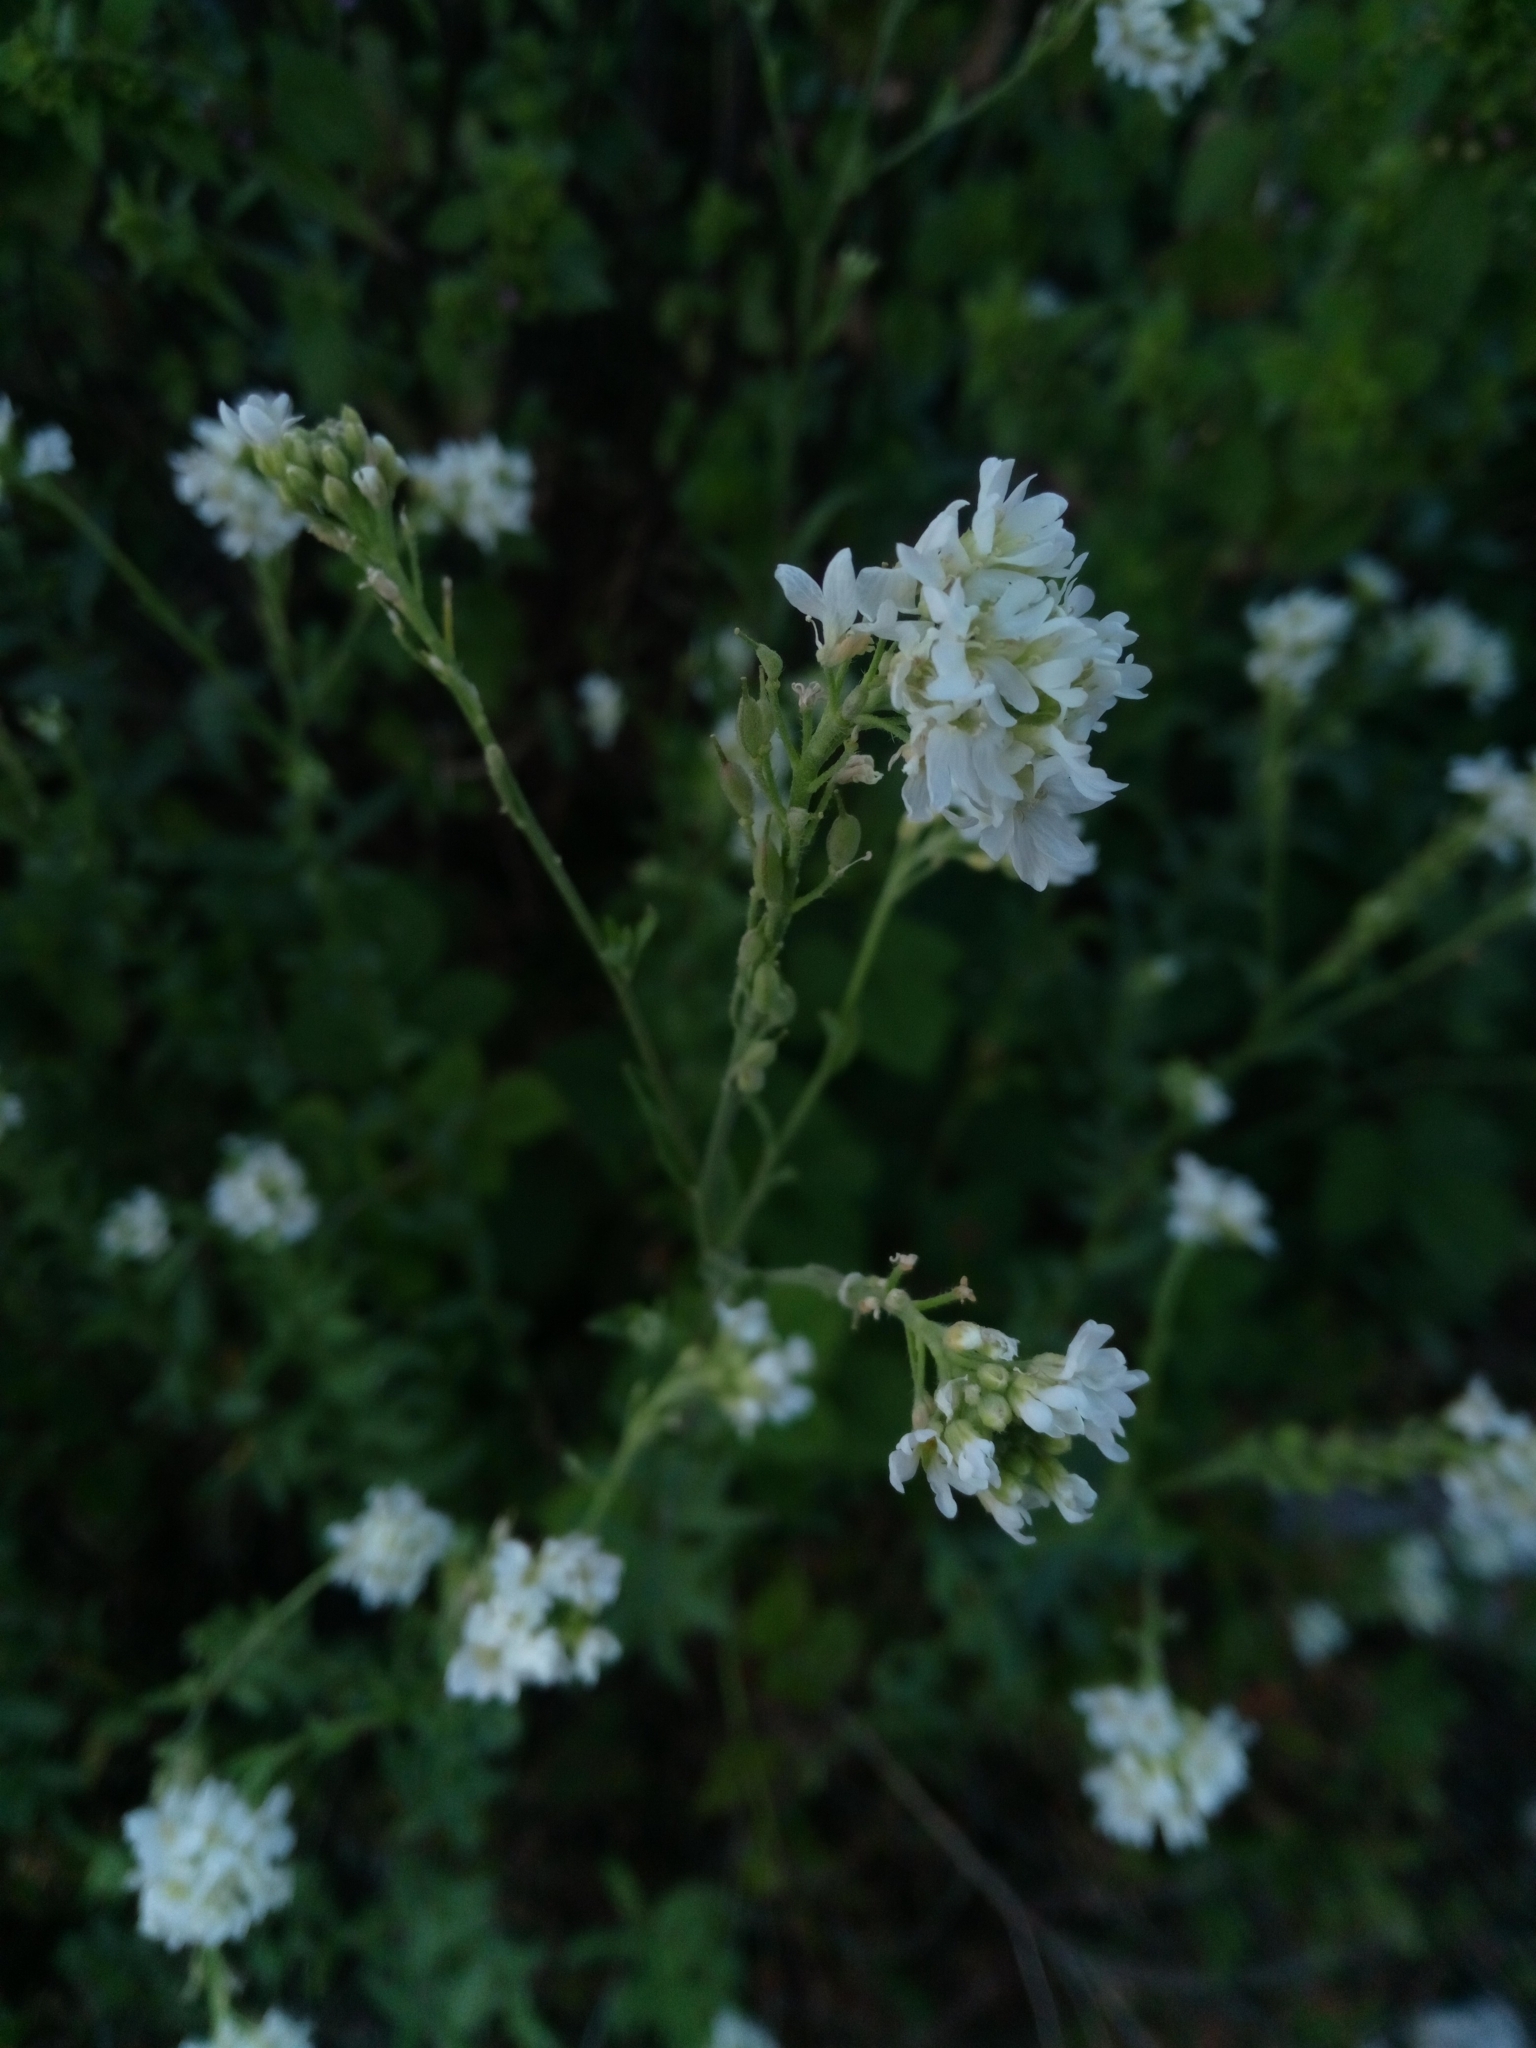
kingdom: Plantae
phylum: Tracheophyta
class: Magnoliopsida
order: Brassicales
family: Brassicaceae
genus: Berteroa
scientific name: Berteroa incana
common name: Hoary alison
